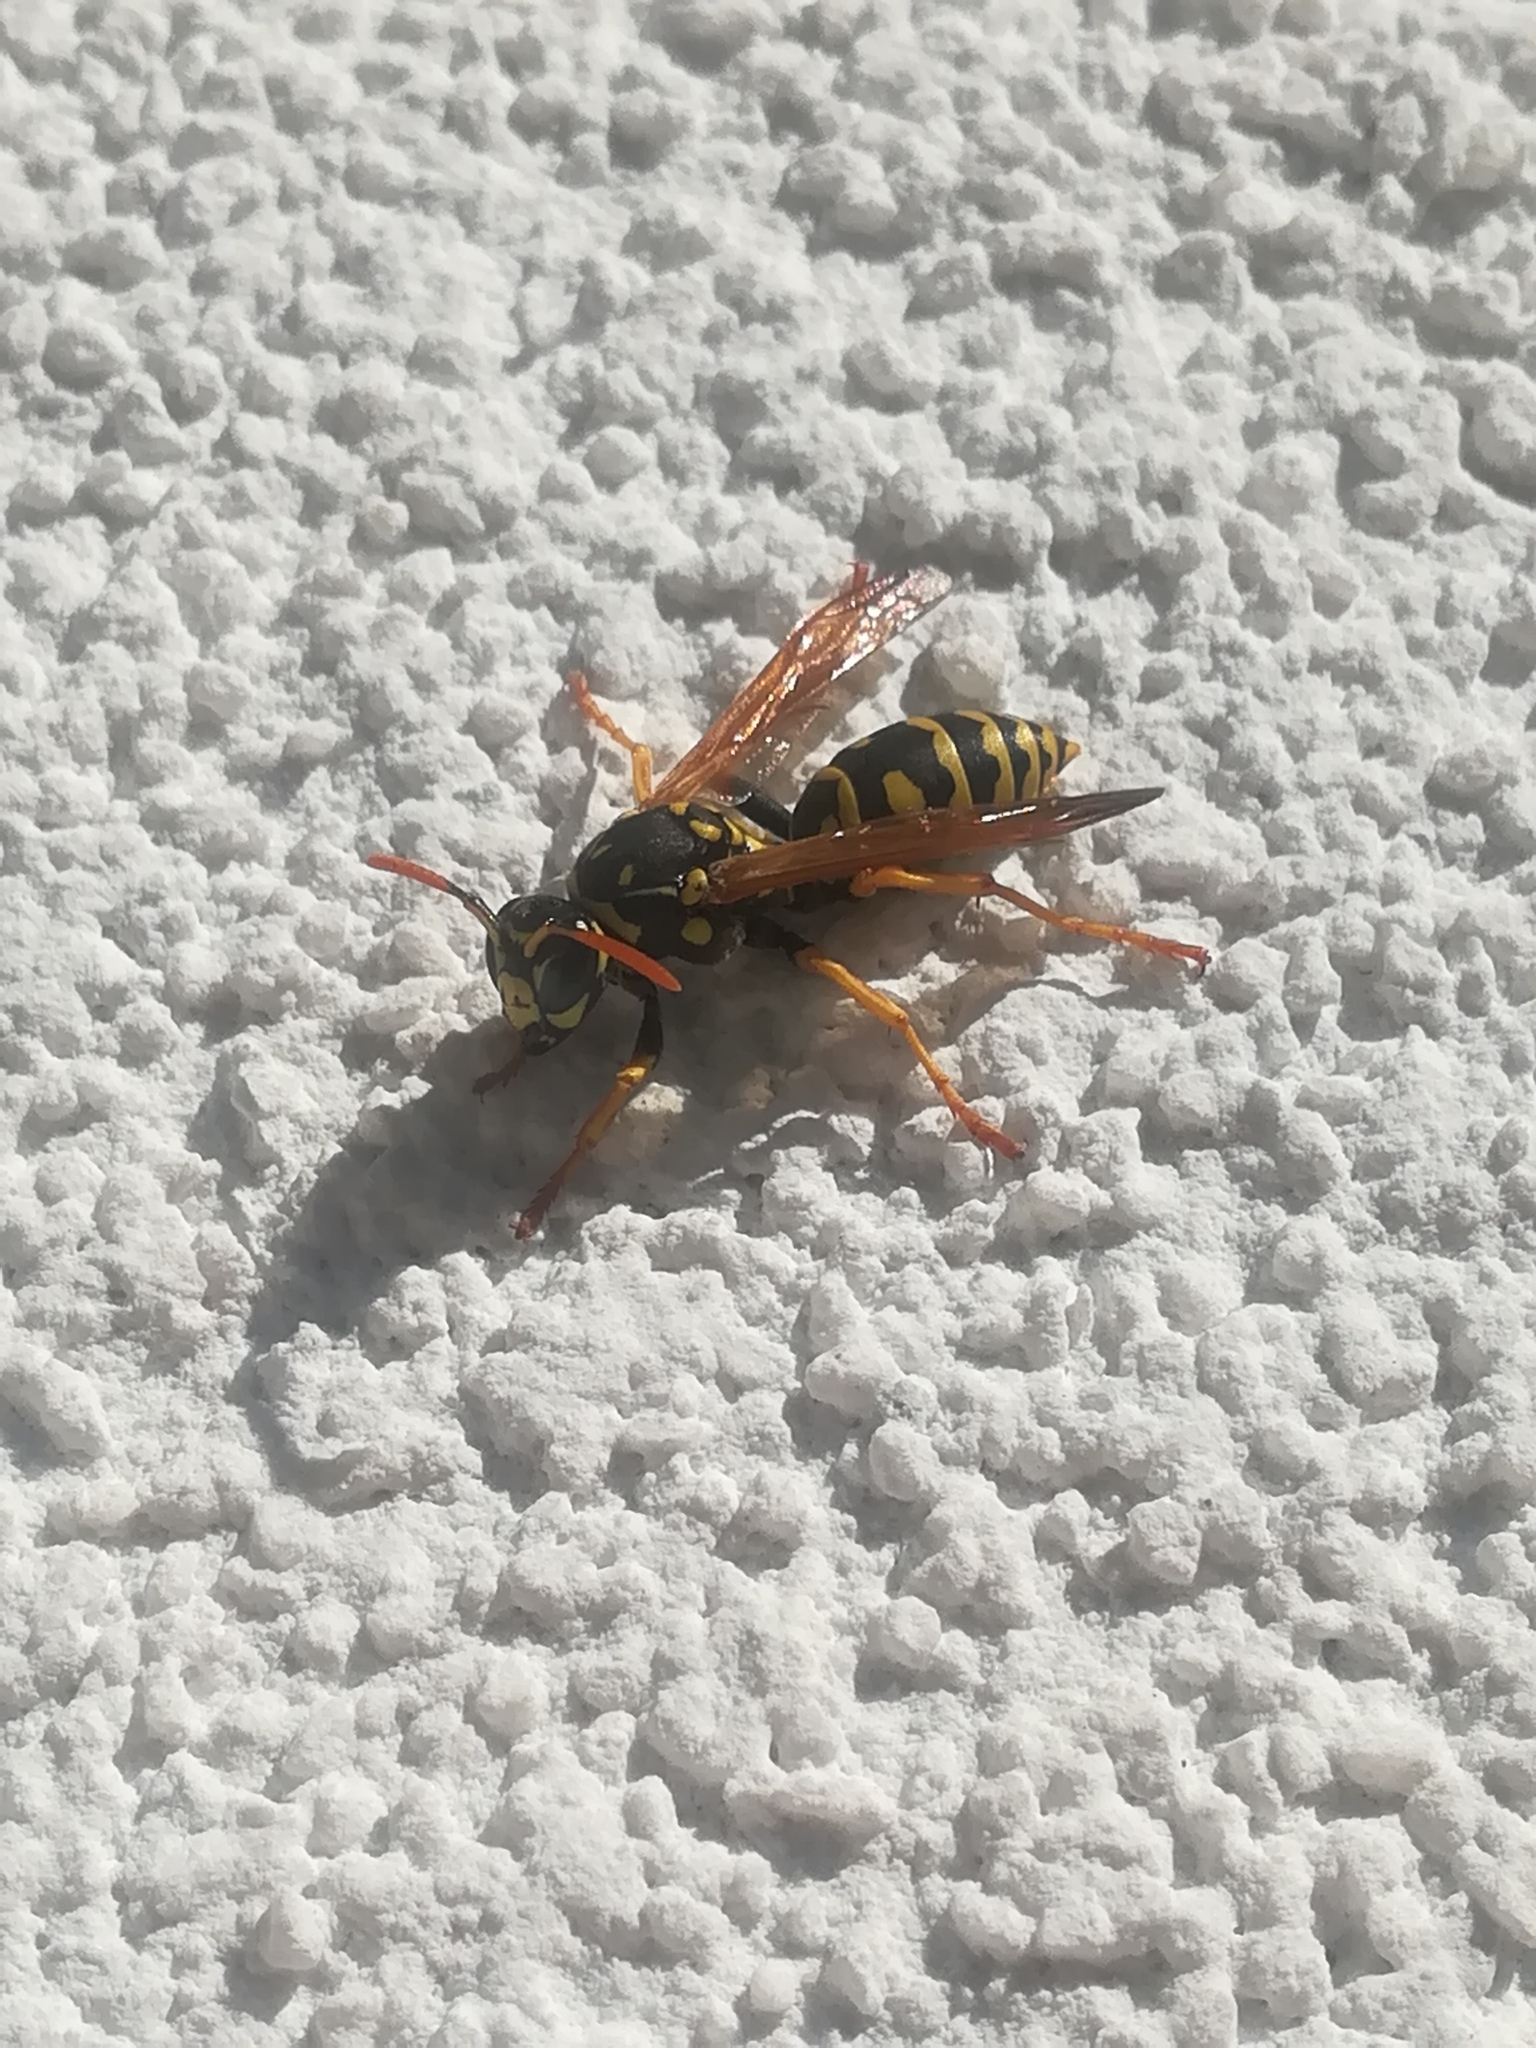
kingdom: Animalia
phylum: Arthropoda
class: Insecta
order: Hymenoptera
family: Eumenidae
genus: Polistes
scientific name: Polistes dominula
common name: Paper wasp
